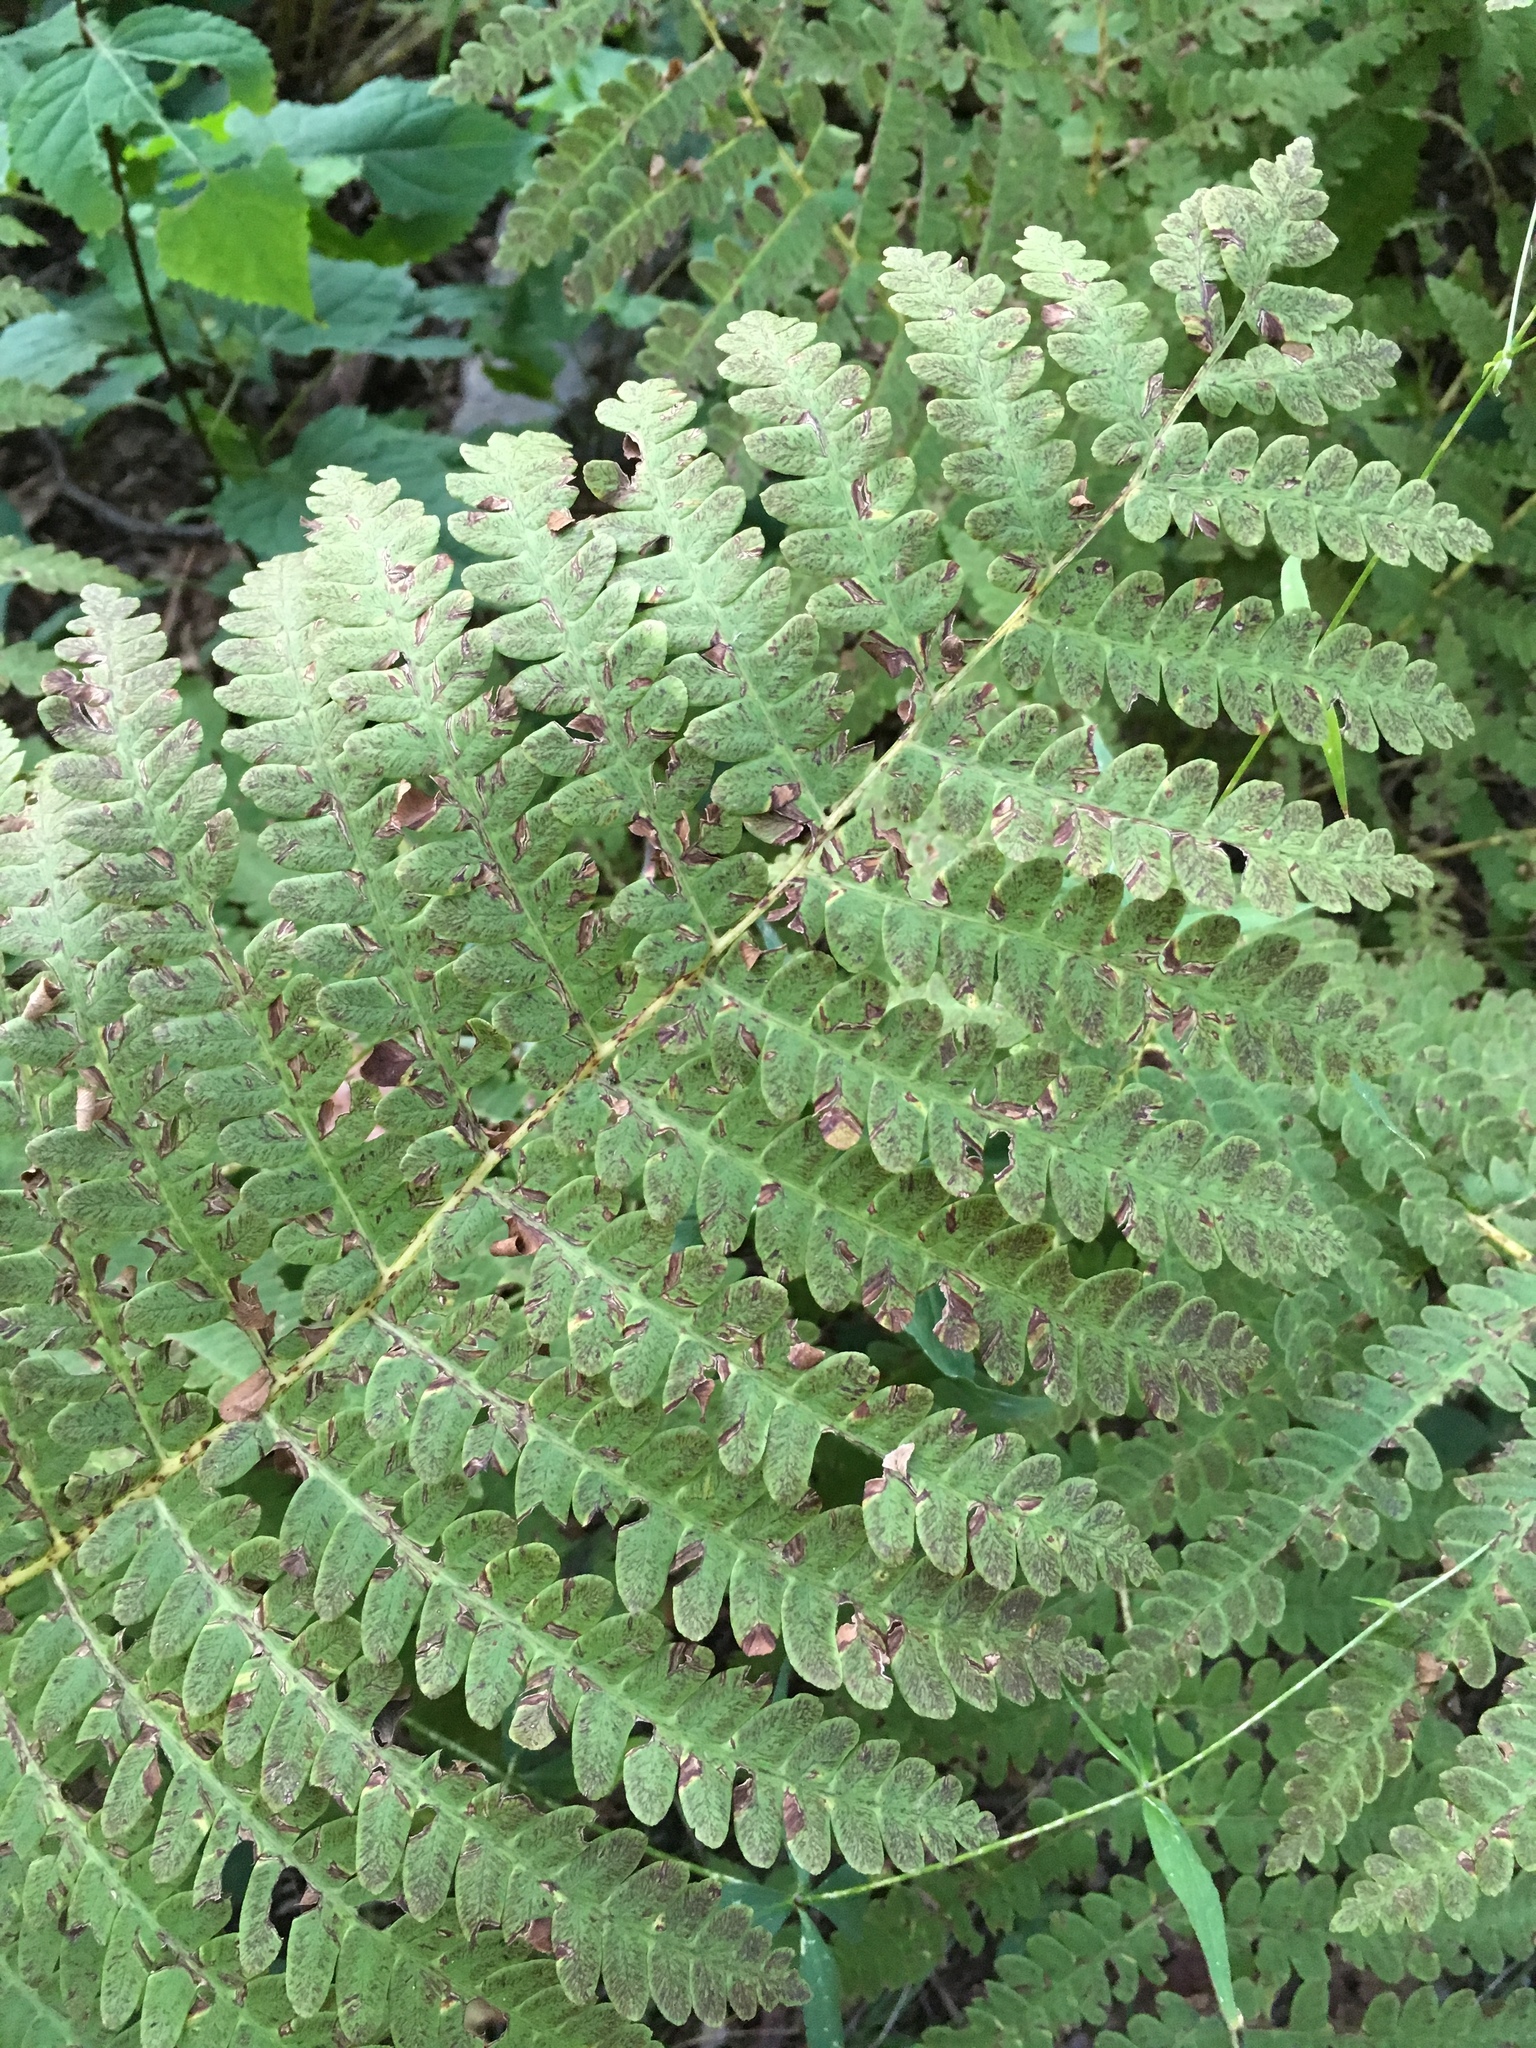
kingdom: Plantae
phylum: Tracheophyta
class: Polypodiopsida
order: Osmundales
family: Osmundaceae
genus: Claytosmunda
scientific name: Claytosmunda claytoniana
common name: Clayton's fern
